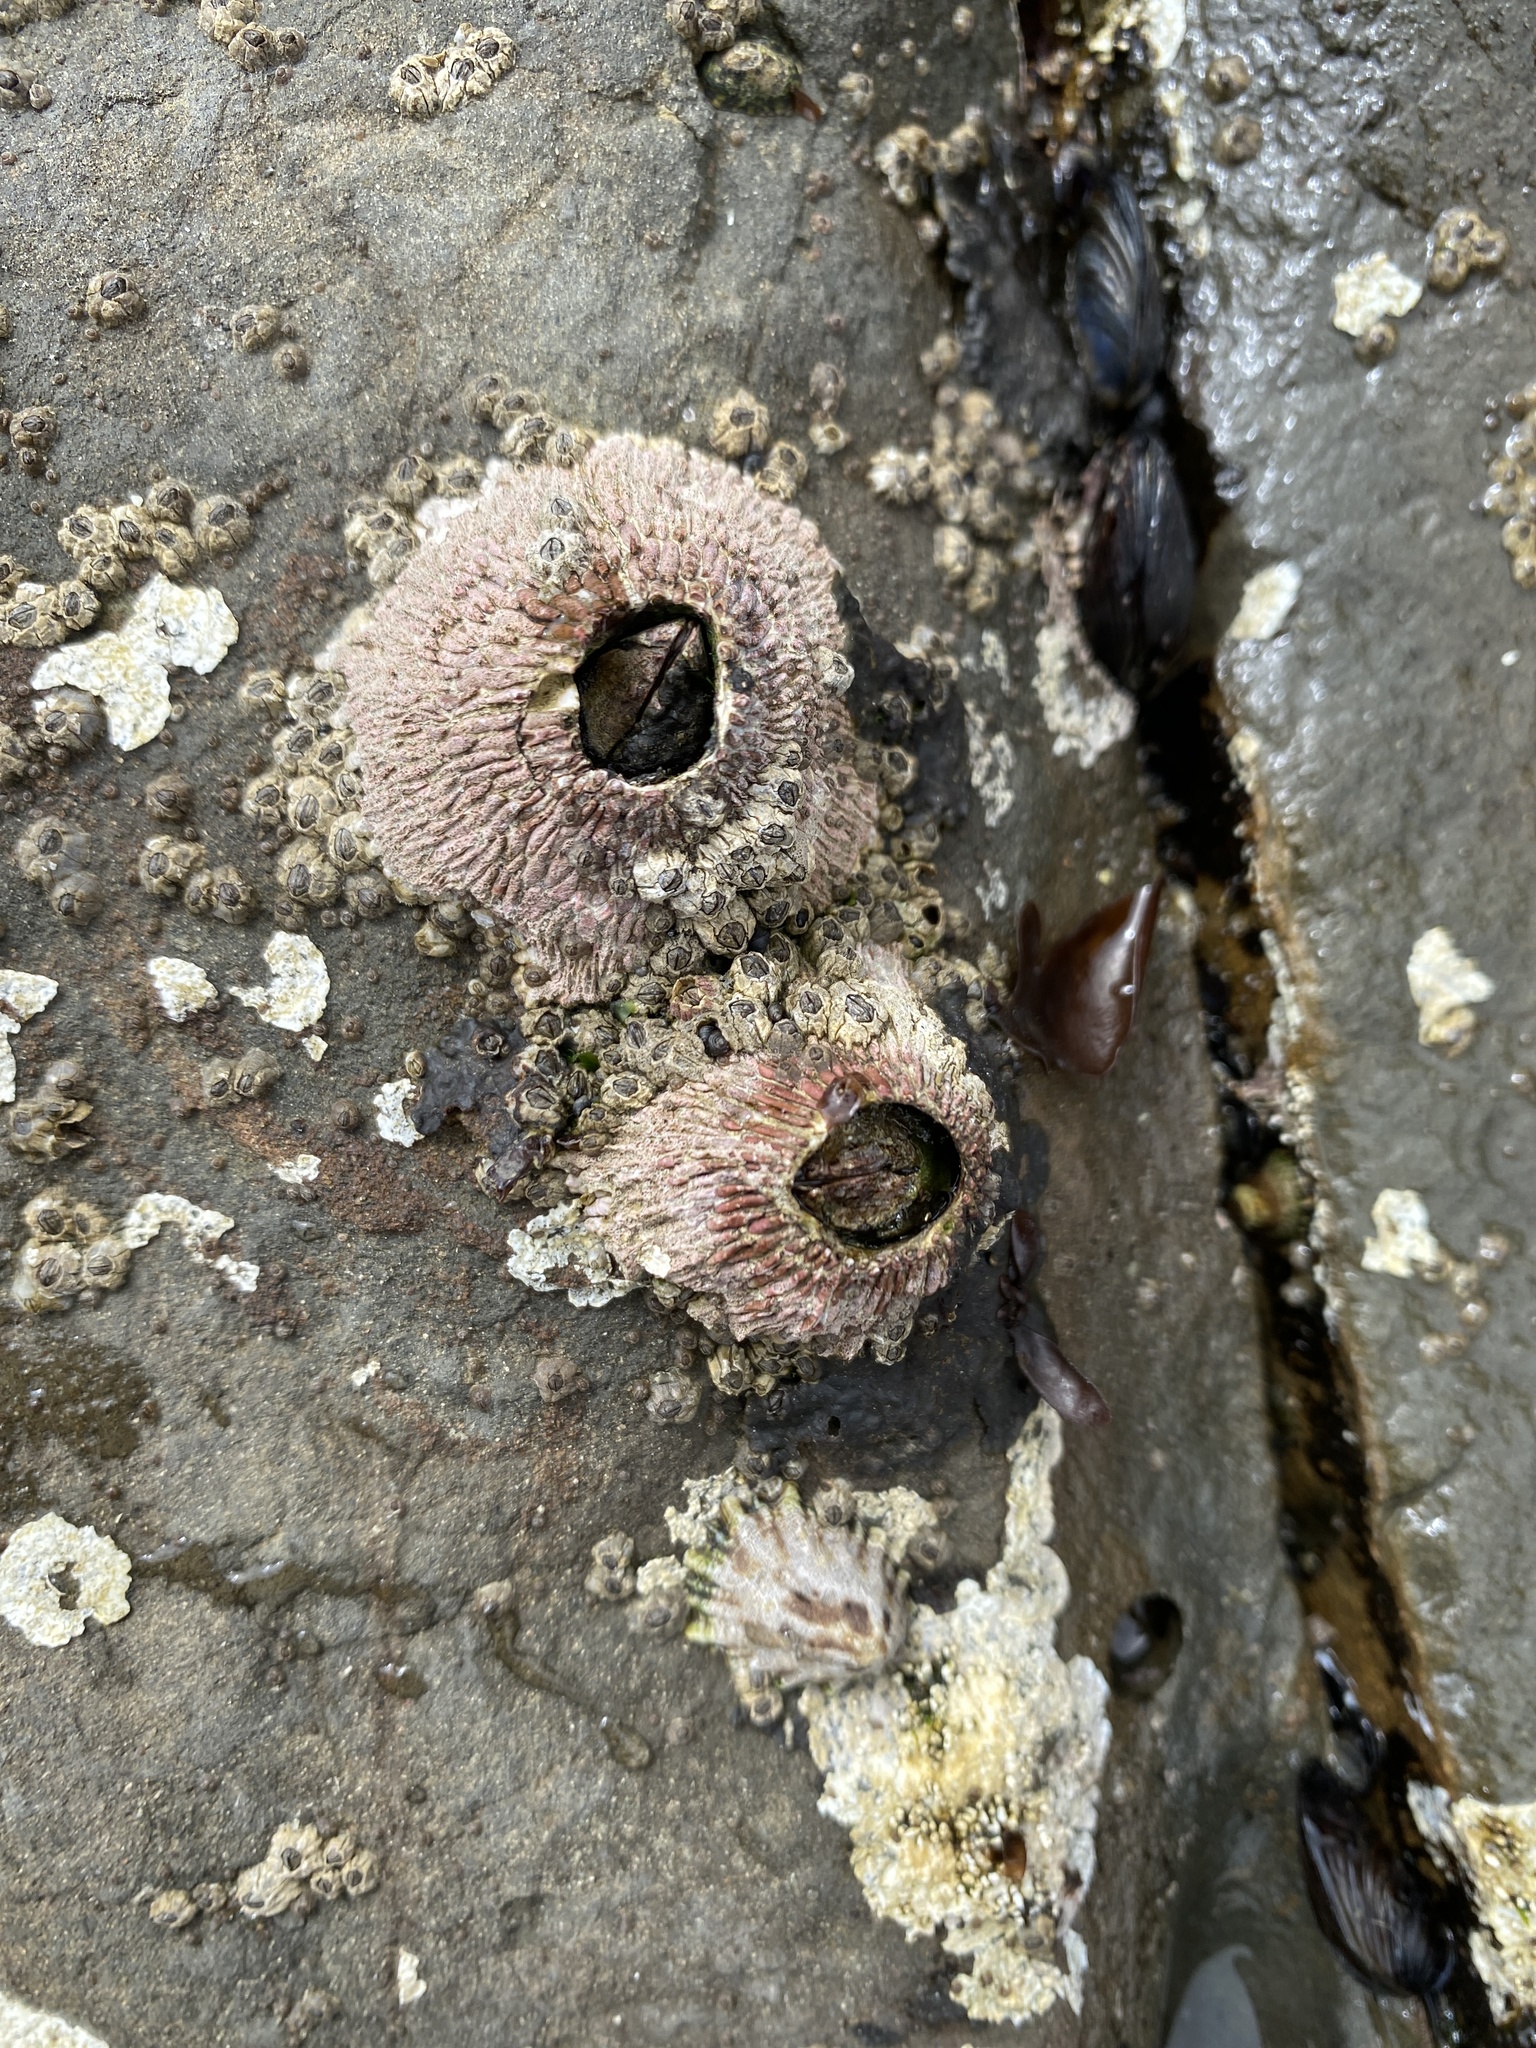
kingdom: Animalia
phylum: Arthropoda
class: Maxillopoda
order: Sessilia
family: Tetraclitidae
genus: Tetraclita
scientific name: Tetraclita rubescens
